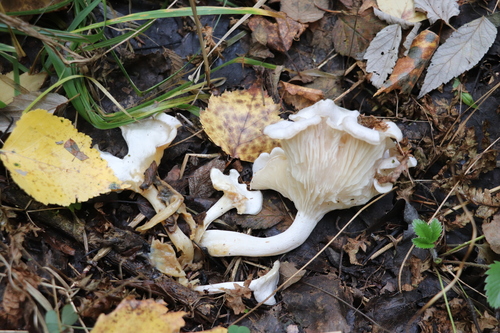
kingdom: Fungi
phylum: Basidiomycota
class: Agaricomycetes
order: Agaricales
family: Tricholomataceae
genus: Leucocybe
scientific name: Leucocybe connata
